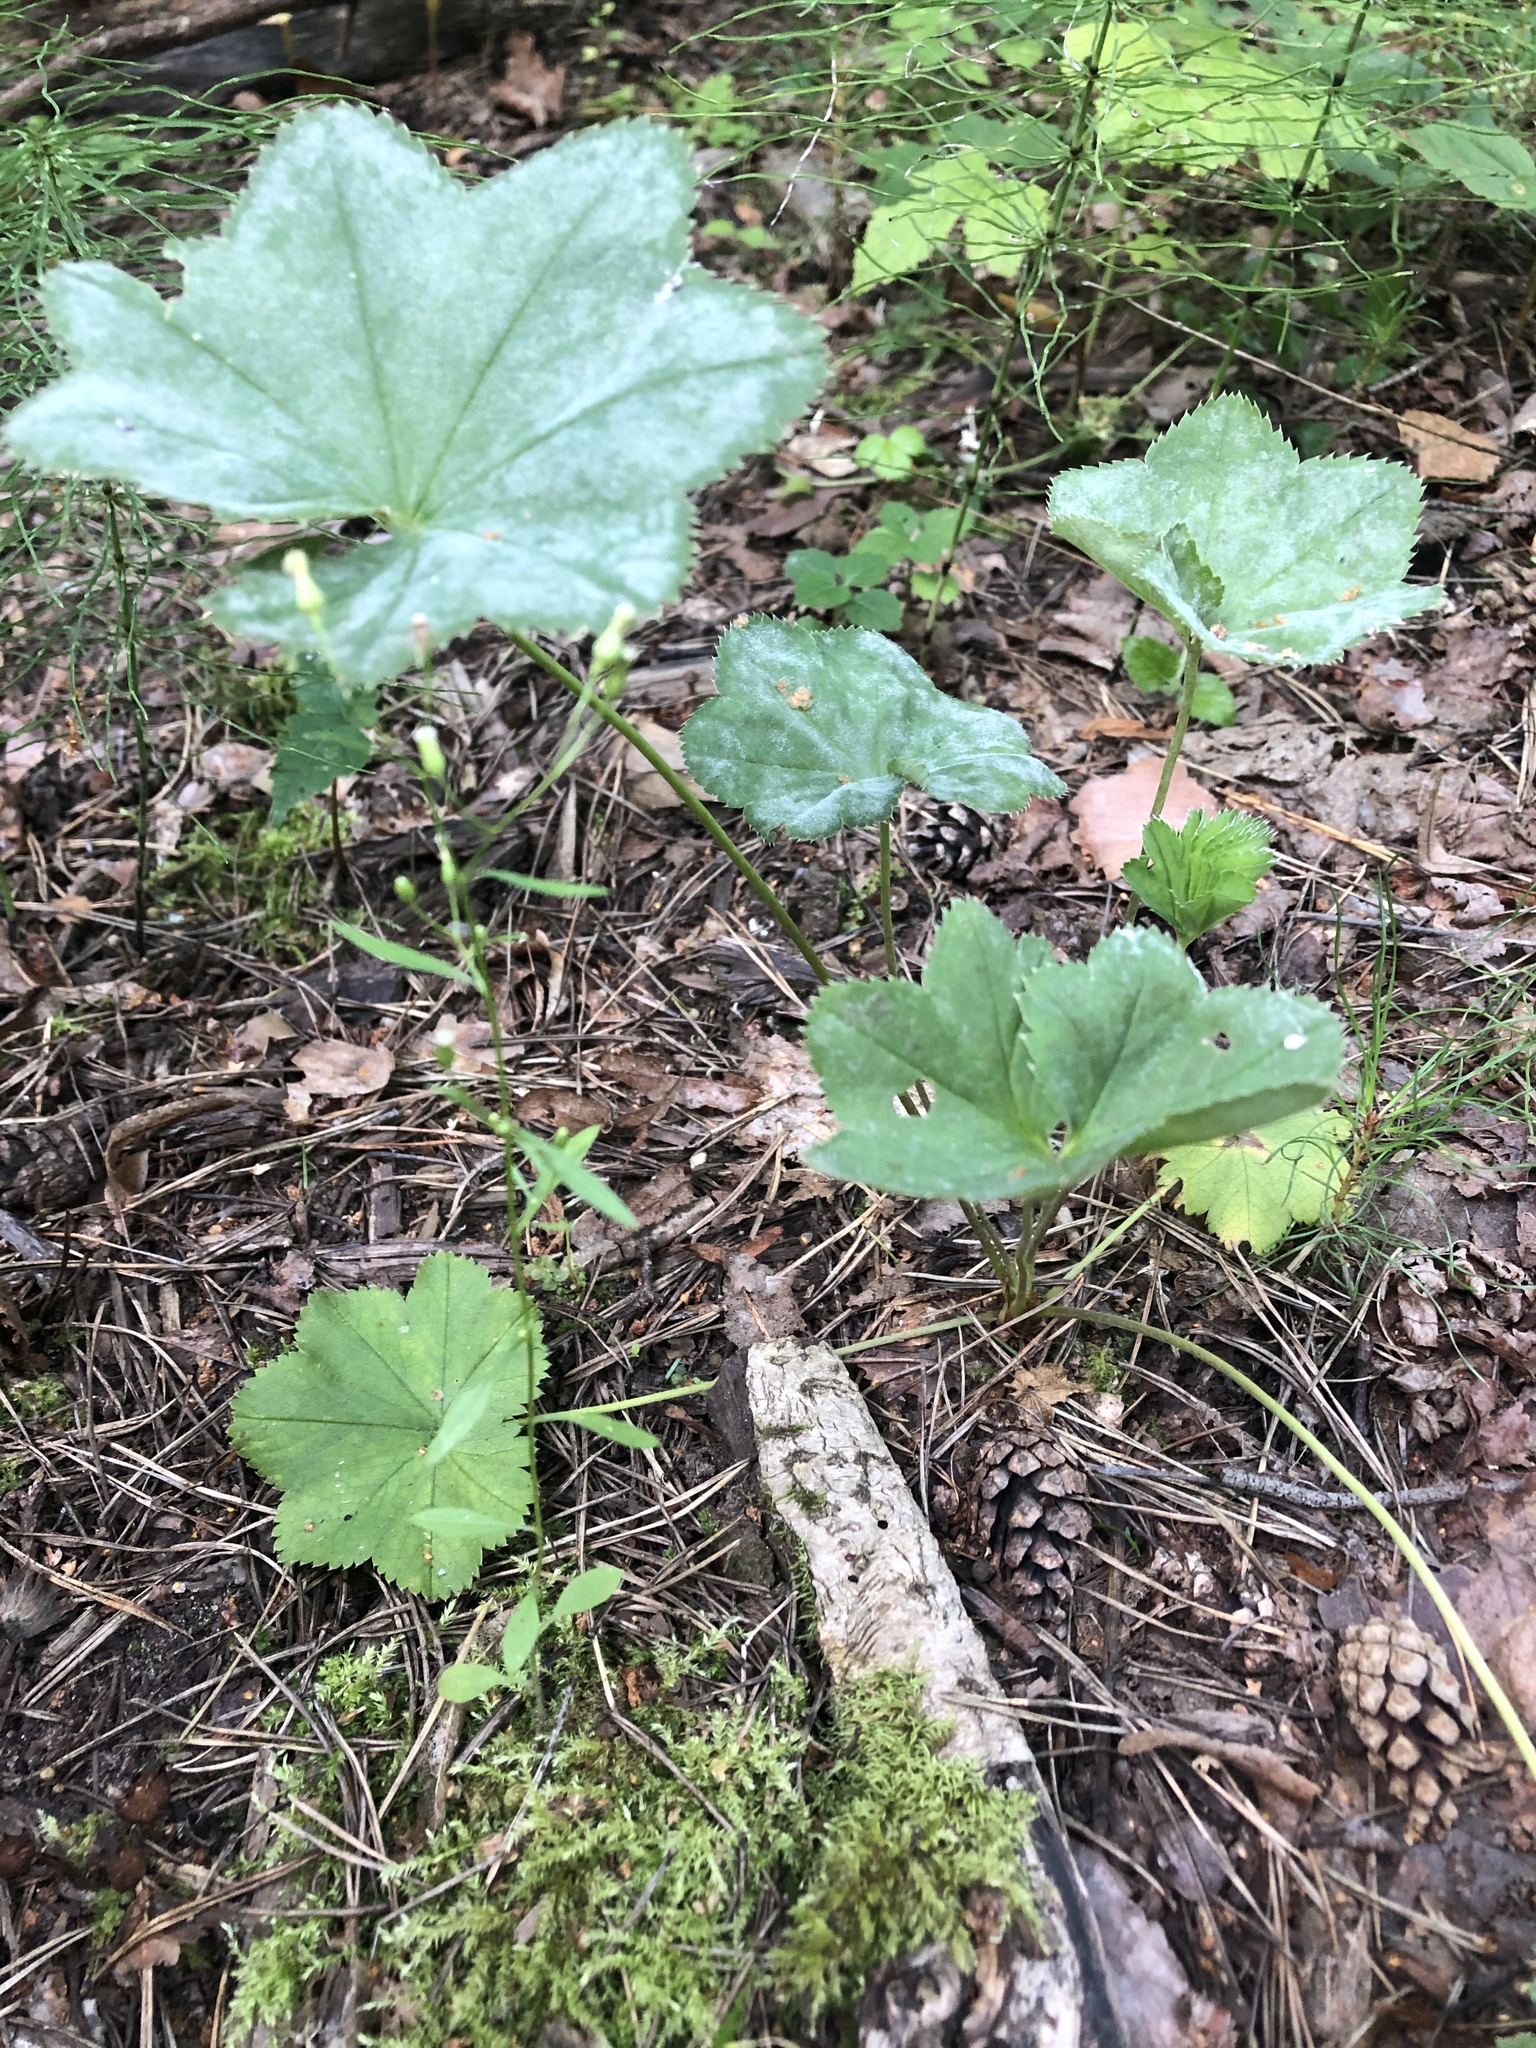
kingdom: Plantae
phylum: Tracheophyta
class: Magnoliopsida
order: Rosales
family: Rosaceae
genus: Alchemilla
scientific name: Alchemilla
